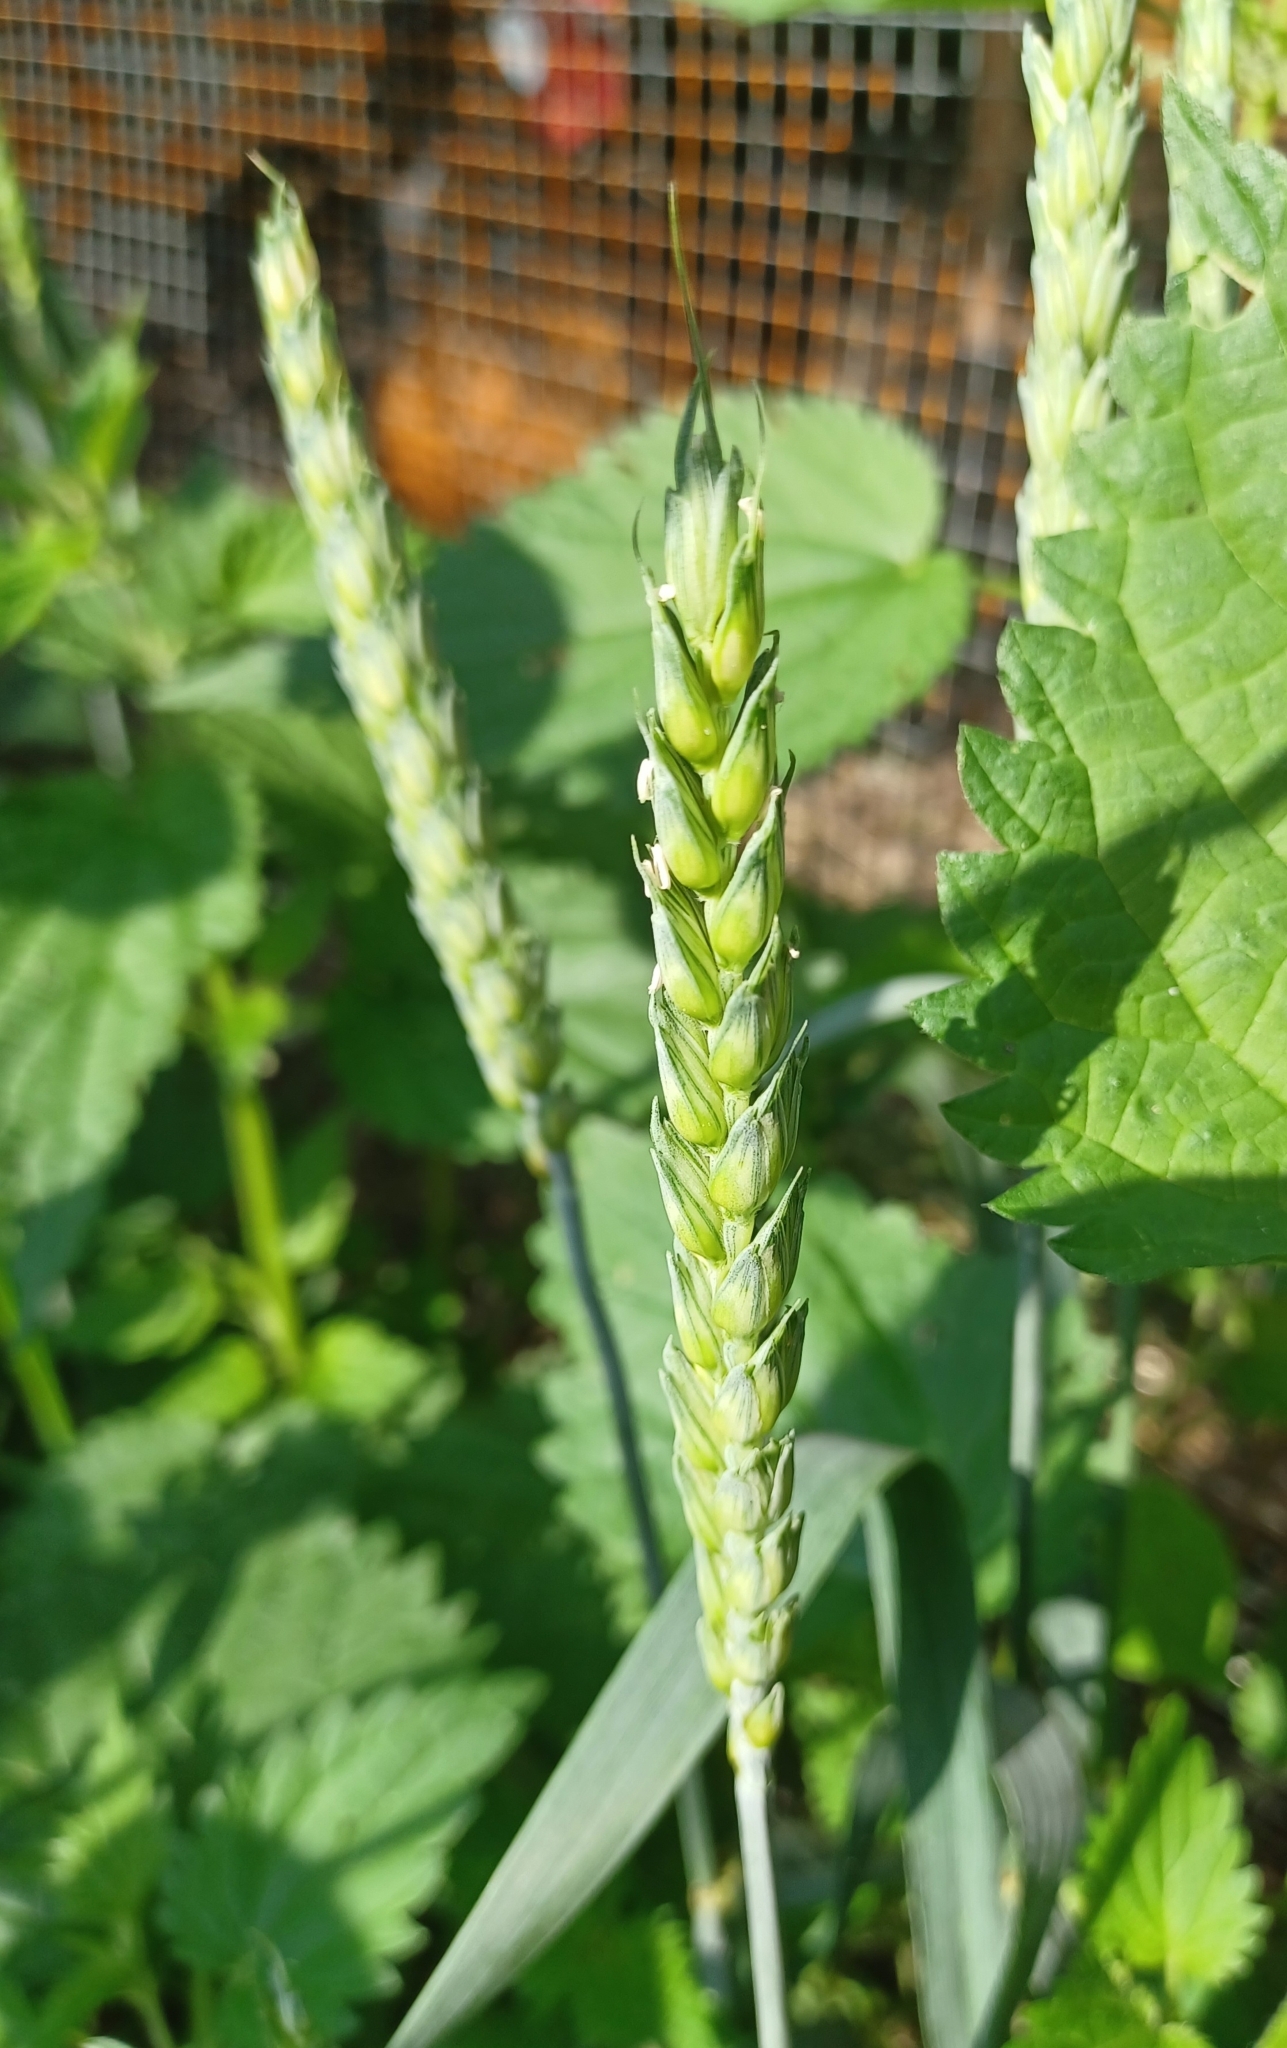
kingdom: Plantae
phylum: Tracheophyta
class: Liliopsida
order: Poales
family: Poaceae
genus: Triticum
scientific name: Triticum aestivum
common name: Common wheat
